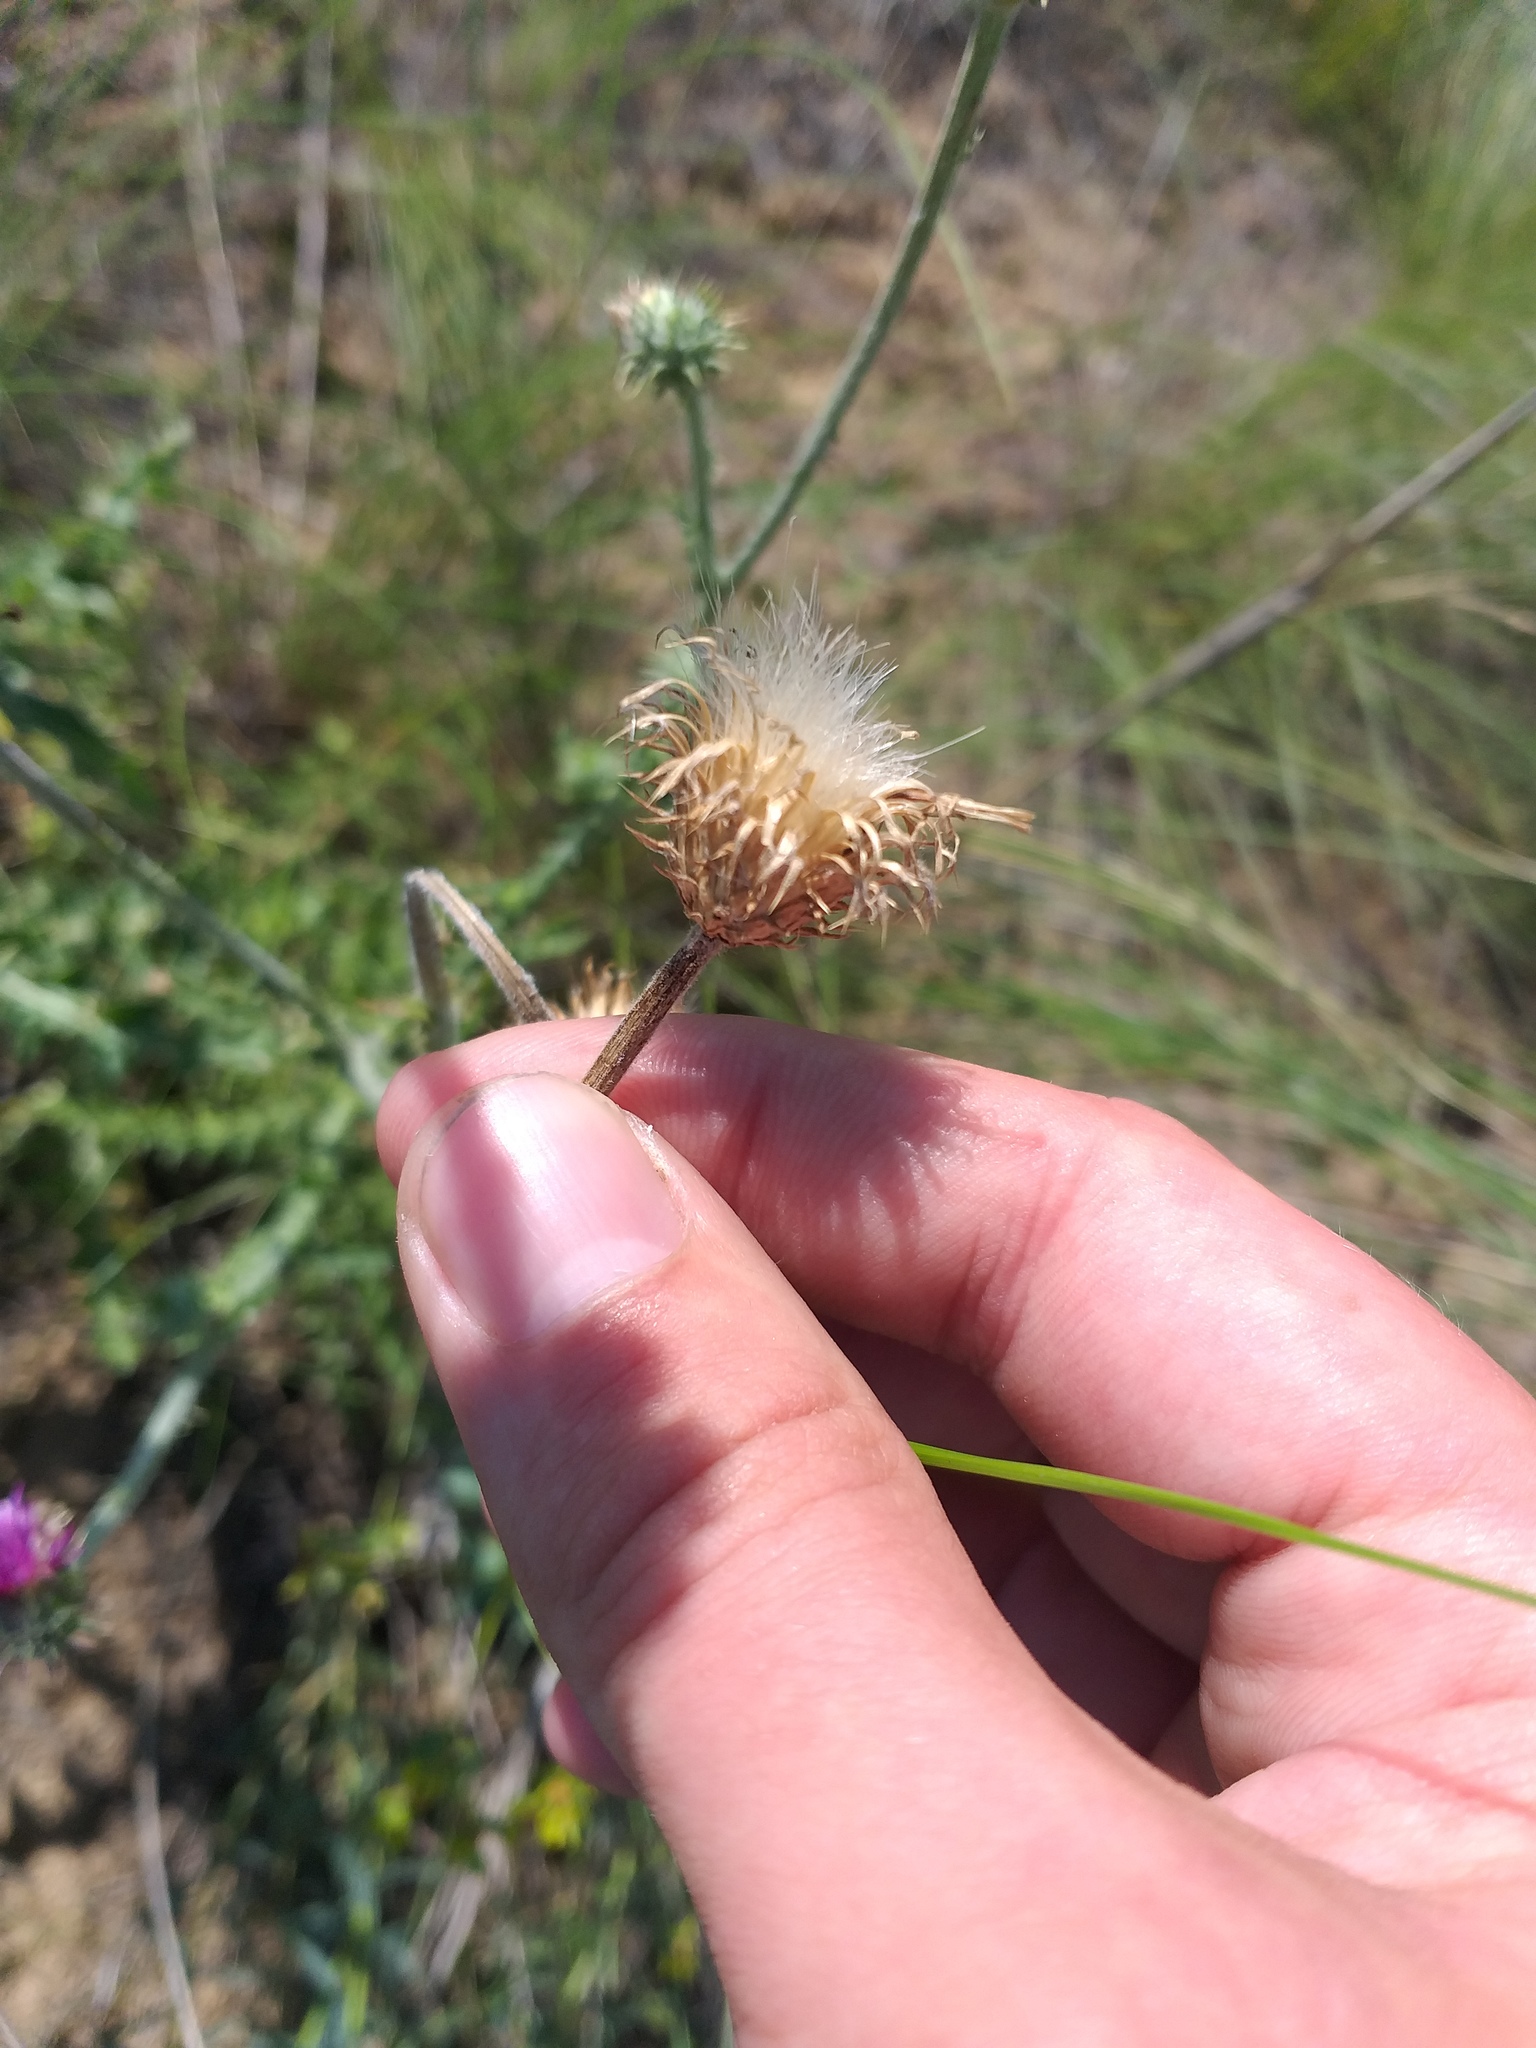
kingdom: Plantae
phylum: Tracheophyta
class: Magnoliopsida
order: Asterales
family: Asteraceae
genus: Carduus
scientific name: Carduus uncinatus
